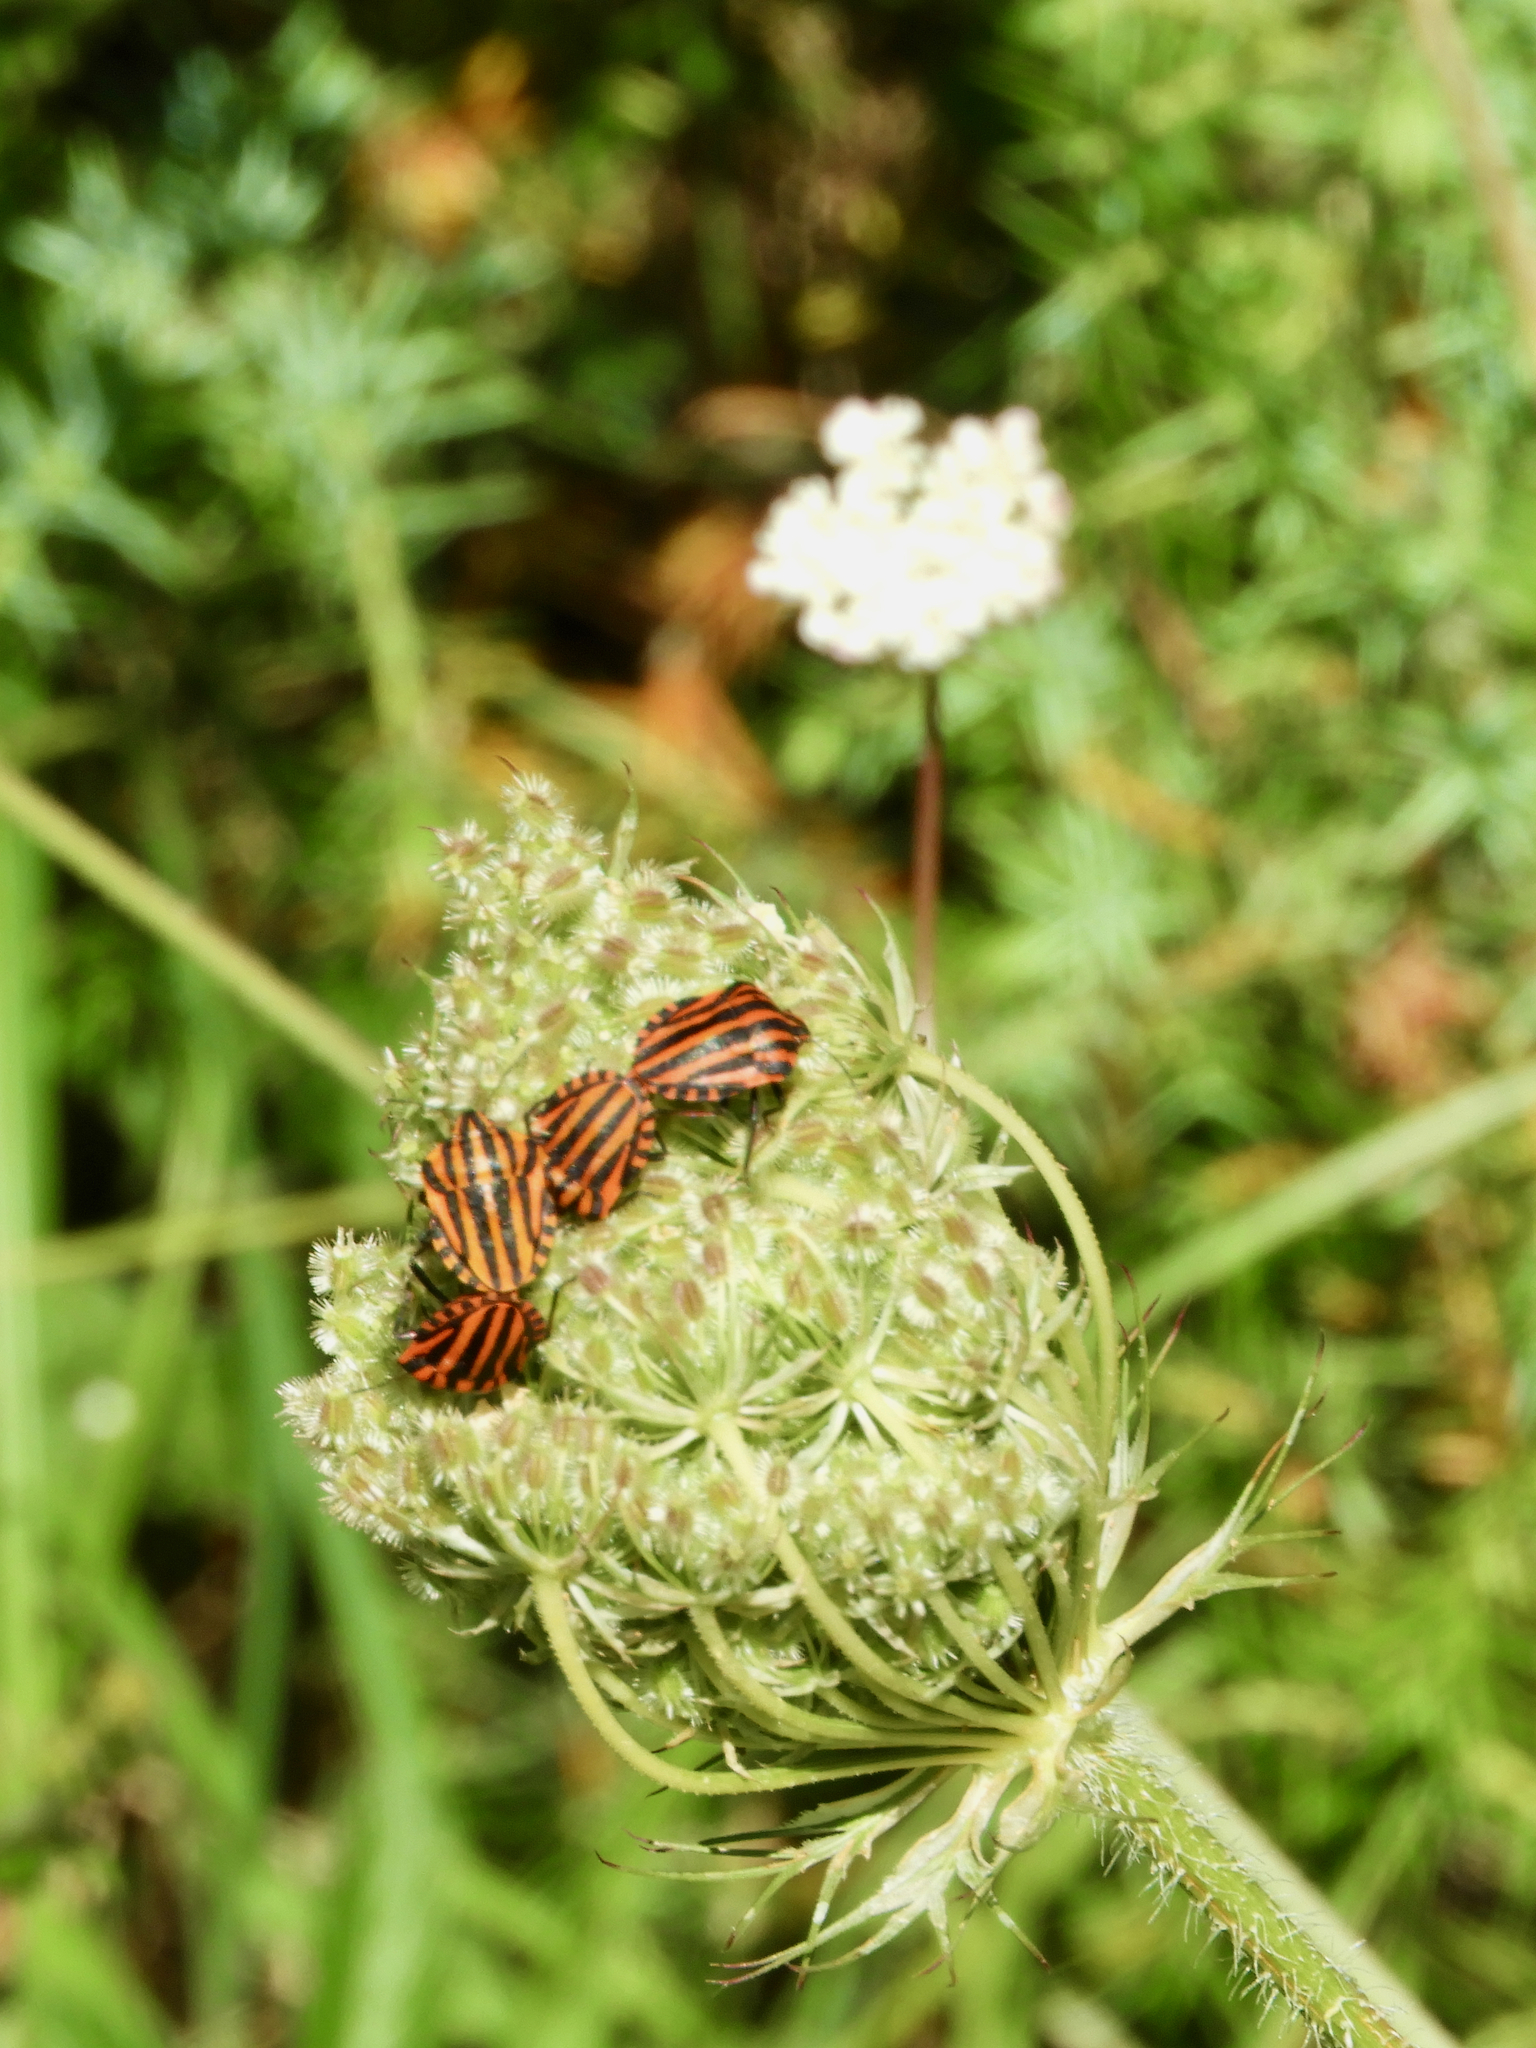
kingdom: Animalia
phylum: Arthropoda
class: Insecta
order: Hemiptera
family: Pentatomidae
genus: Graphosoma
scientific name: Graphosoma italicum
